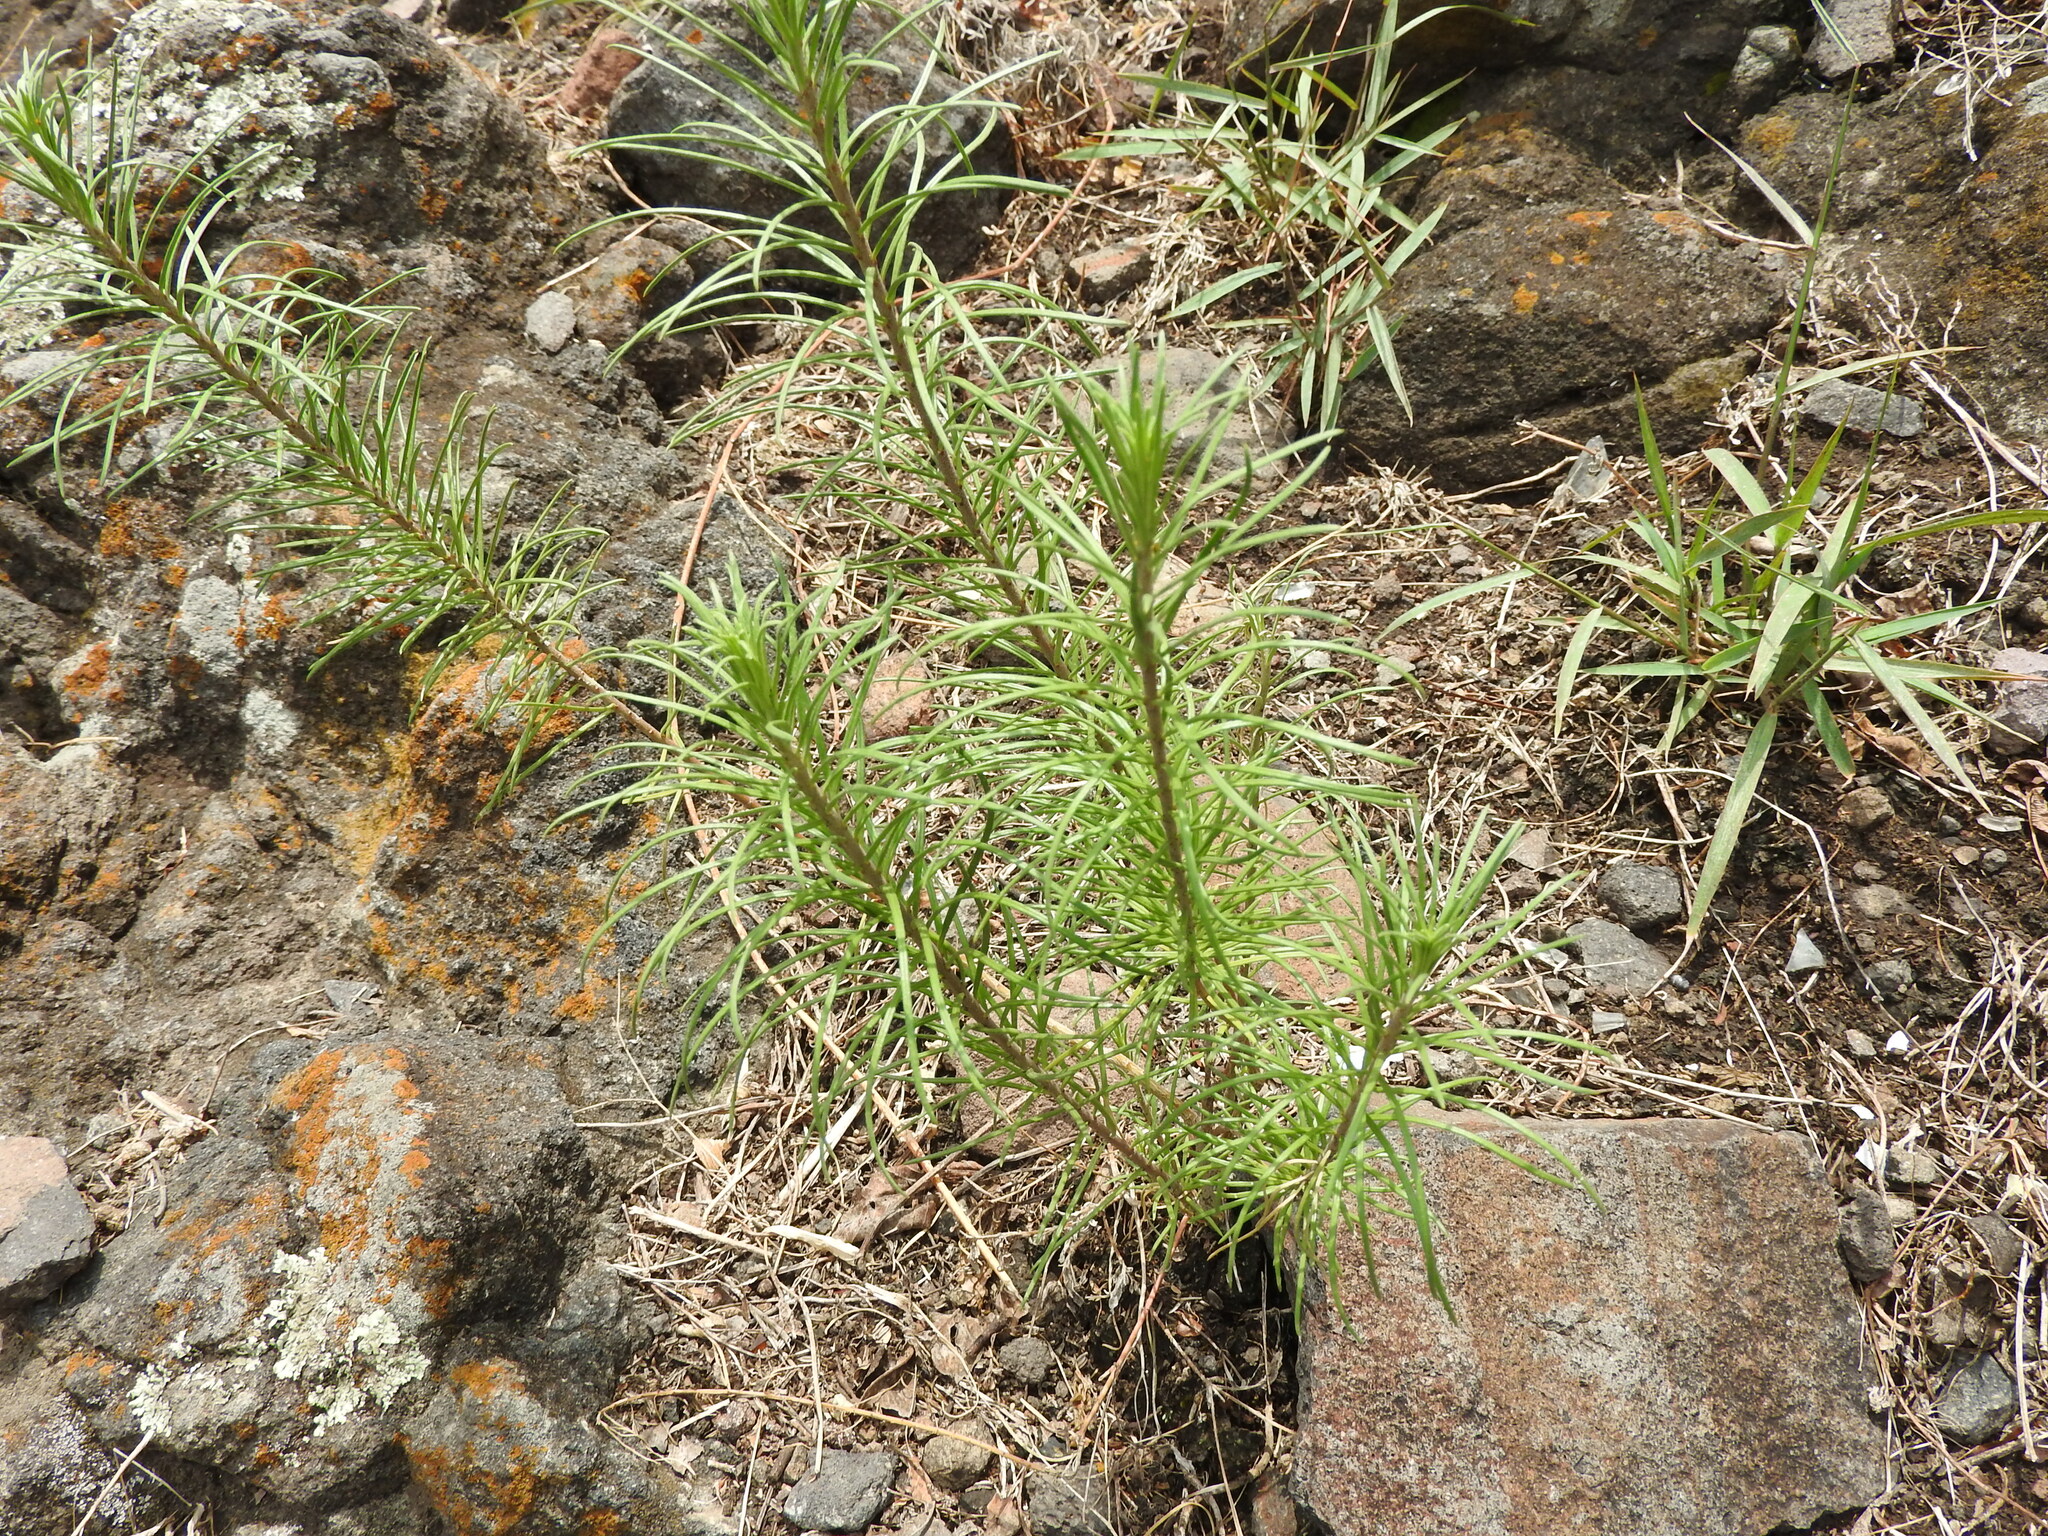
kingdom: Plantae
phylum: Tracheophyta
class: Magnoliopsida
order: Gentianales
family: Apocynaceae
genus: Asclepias
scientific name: Asclepias linaria
